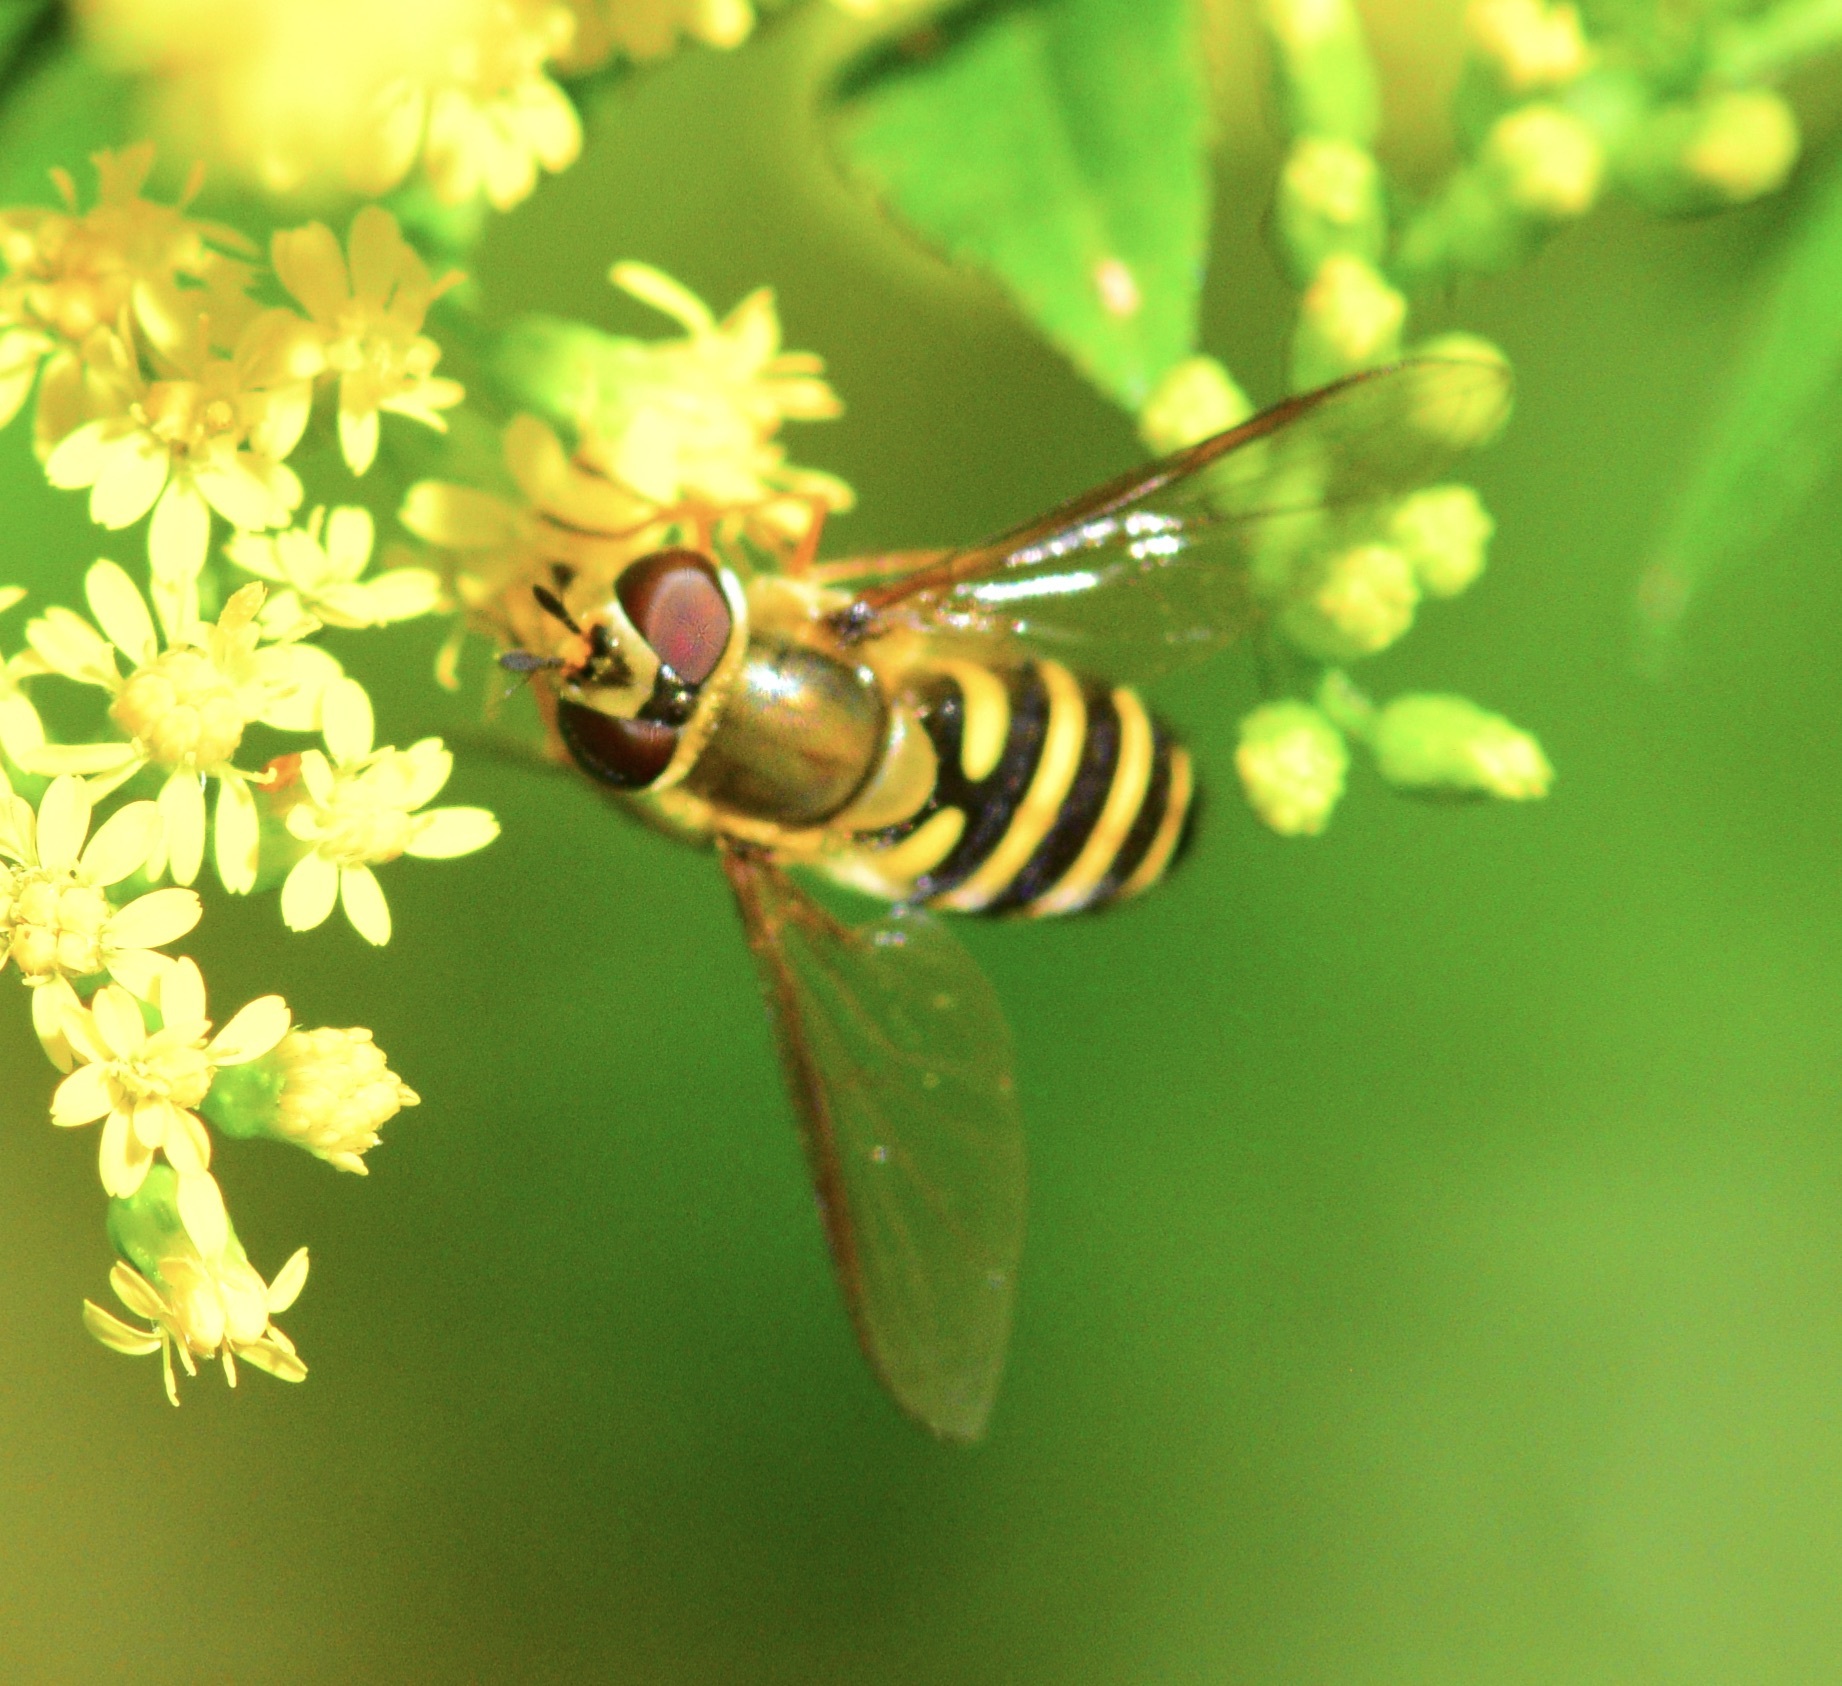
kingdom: Animalia
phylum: Arthropoda
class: Insecta
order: Diptera
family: Syrphidae
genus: Syrphus
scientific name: Syrphus
